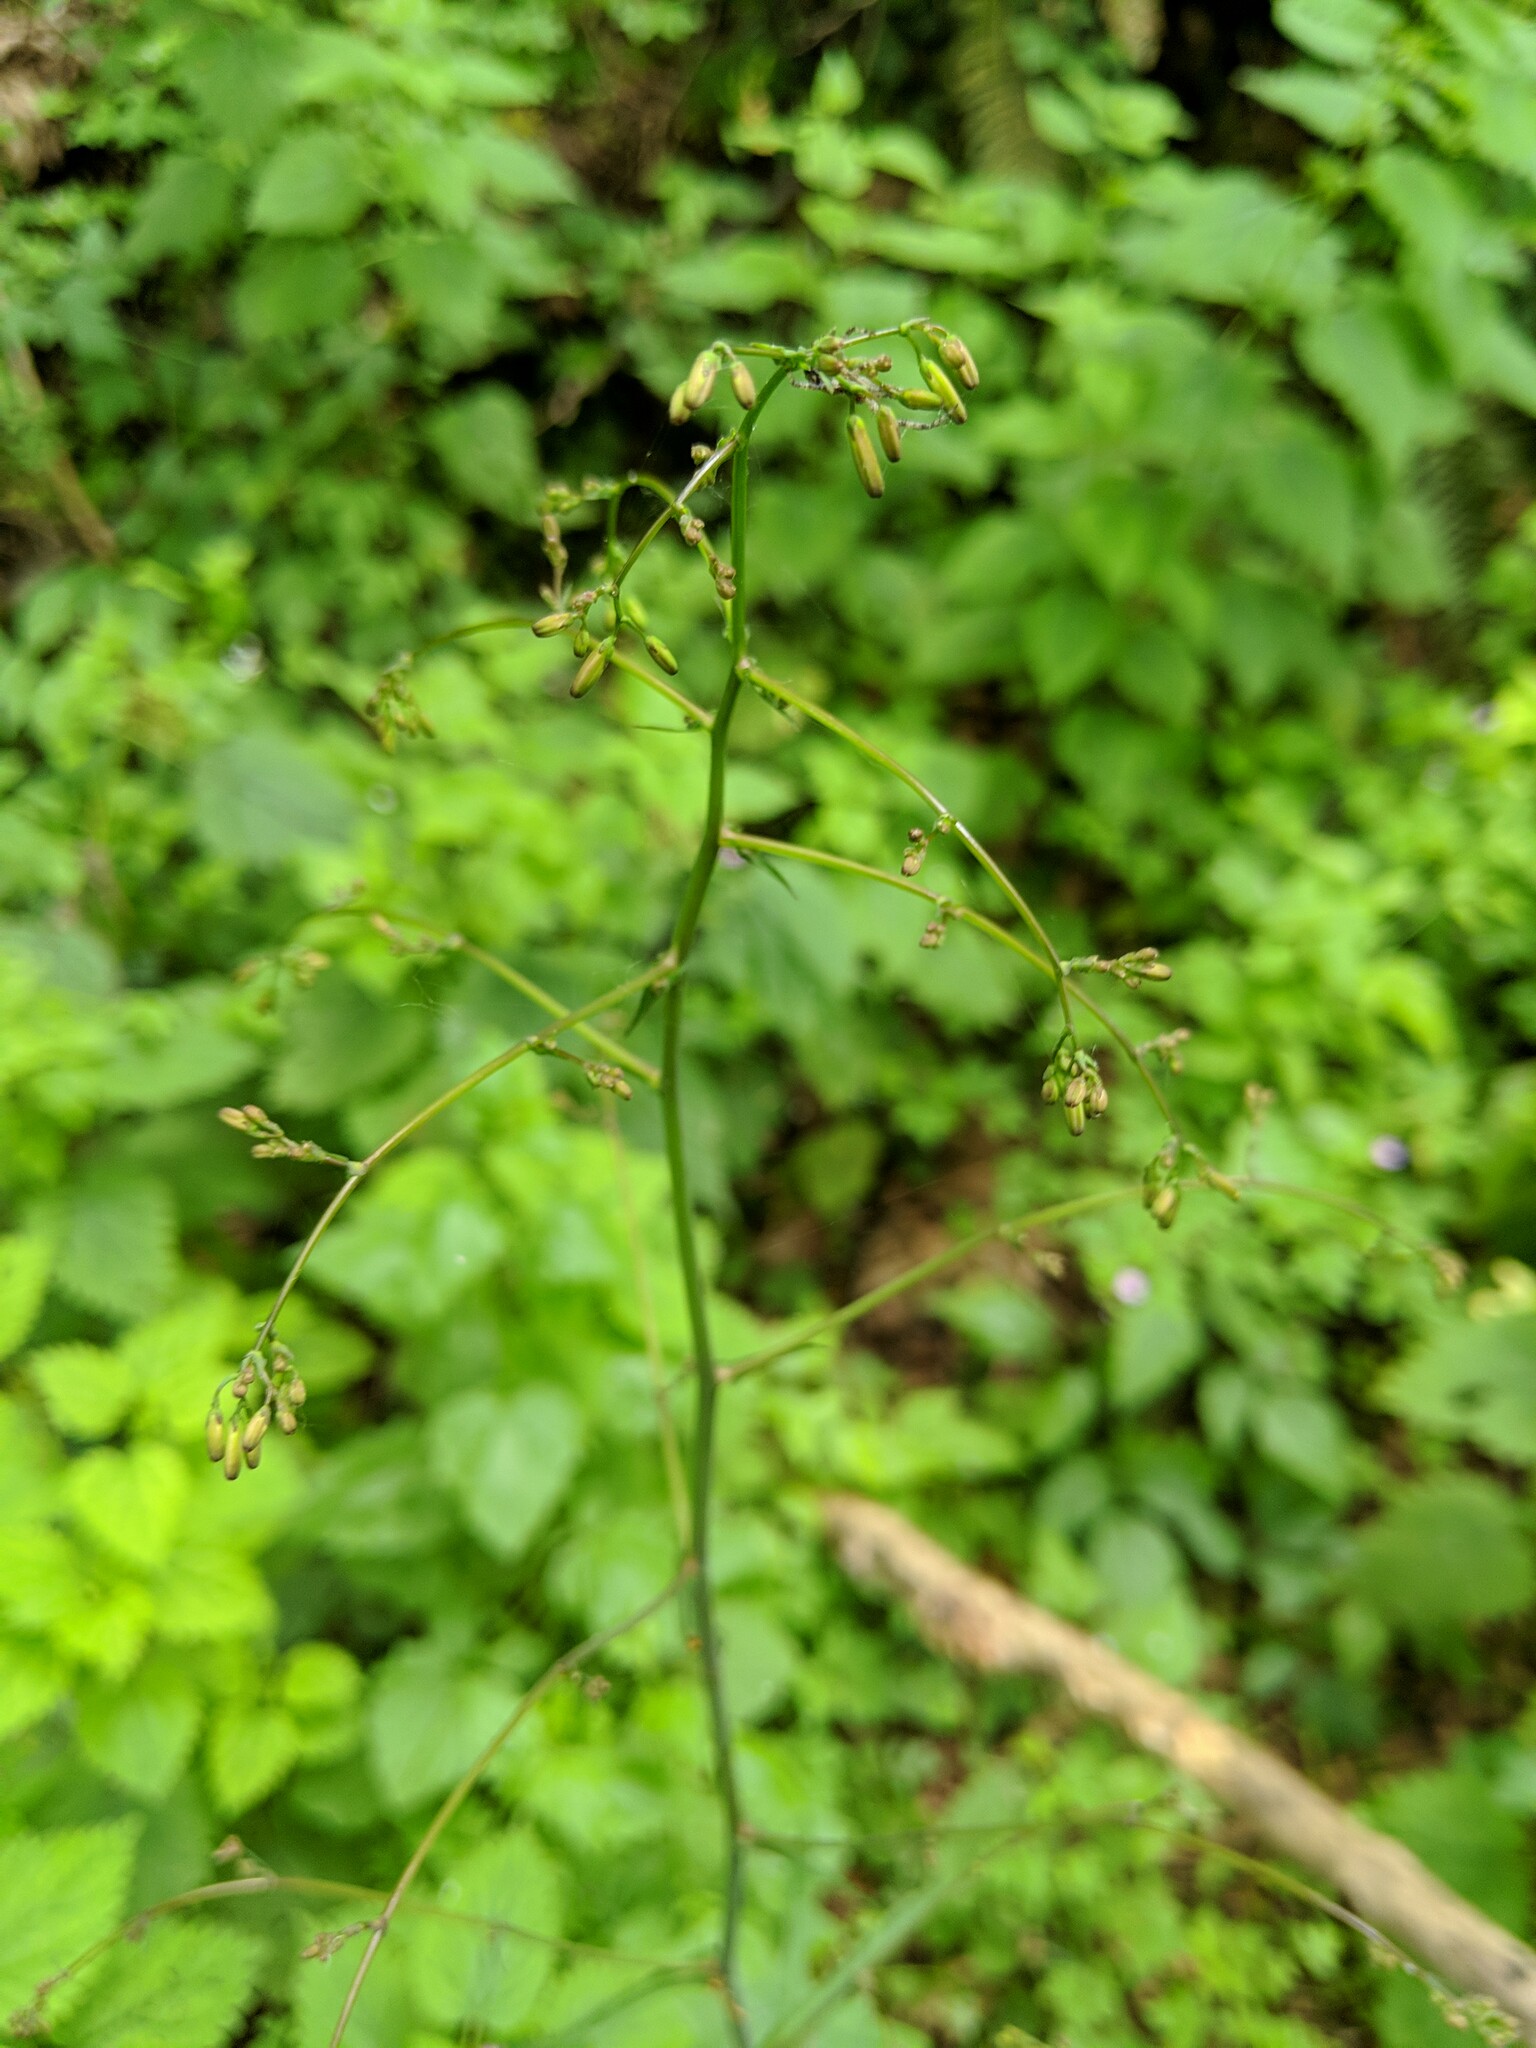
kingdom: Plantae
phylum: Tracheophyta
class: Magnoliopsida
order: Asterales
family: Asteraceae
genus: Mycelis
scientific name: Mycelis muralis
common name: Wall lettuce
